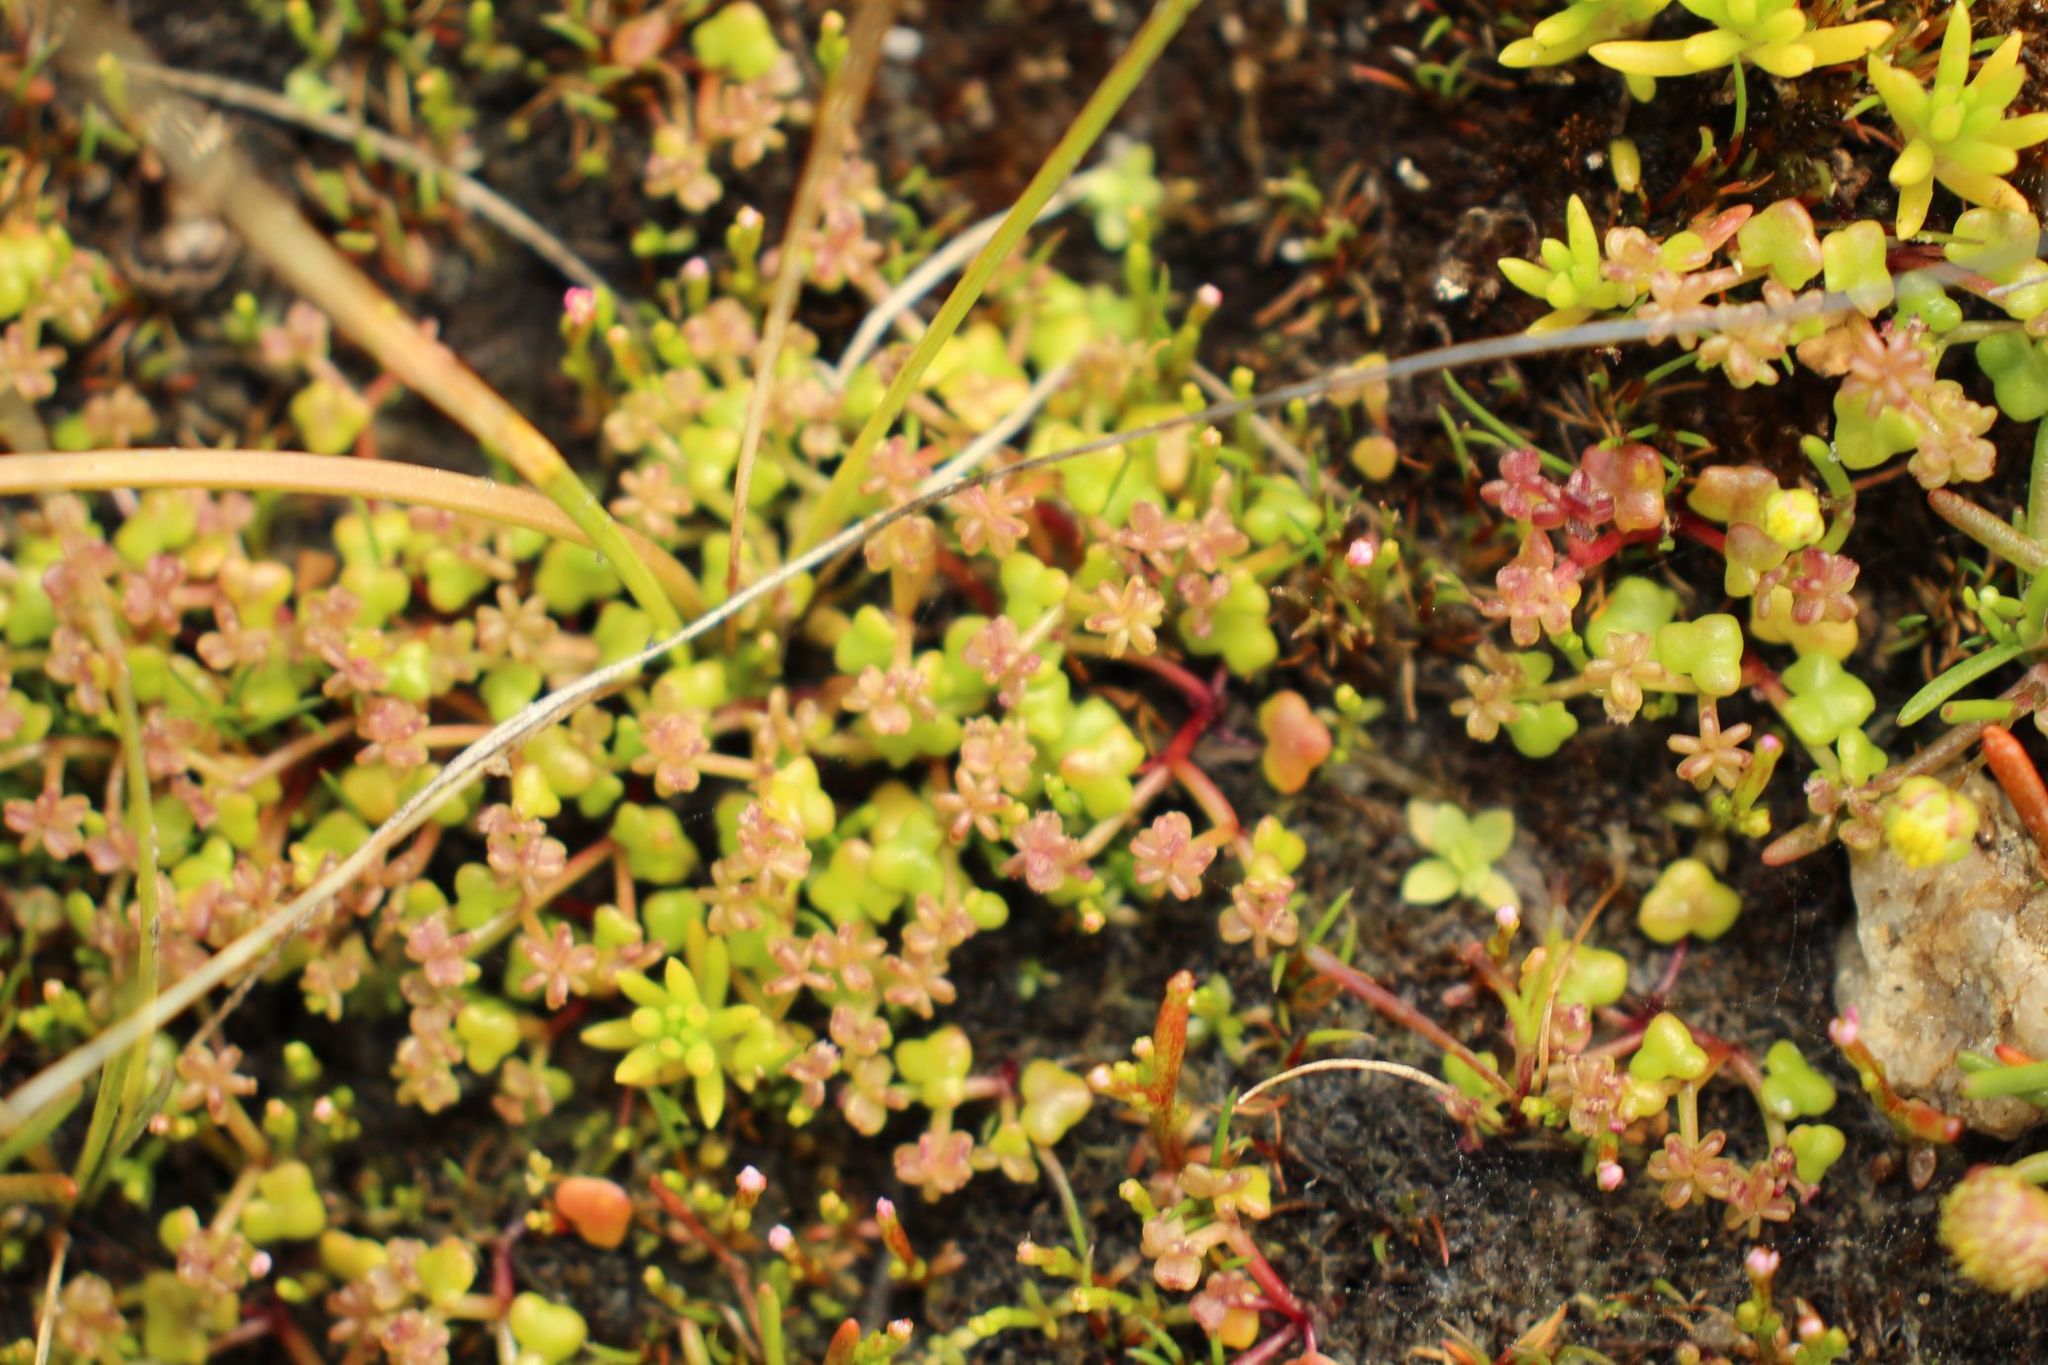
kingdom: Plantae
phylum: Tracheophyta
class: Magnoliopsida
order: Apiales
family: Araliaceae
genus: Hydrocotyle
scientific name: Hydrocotyle alata
